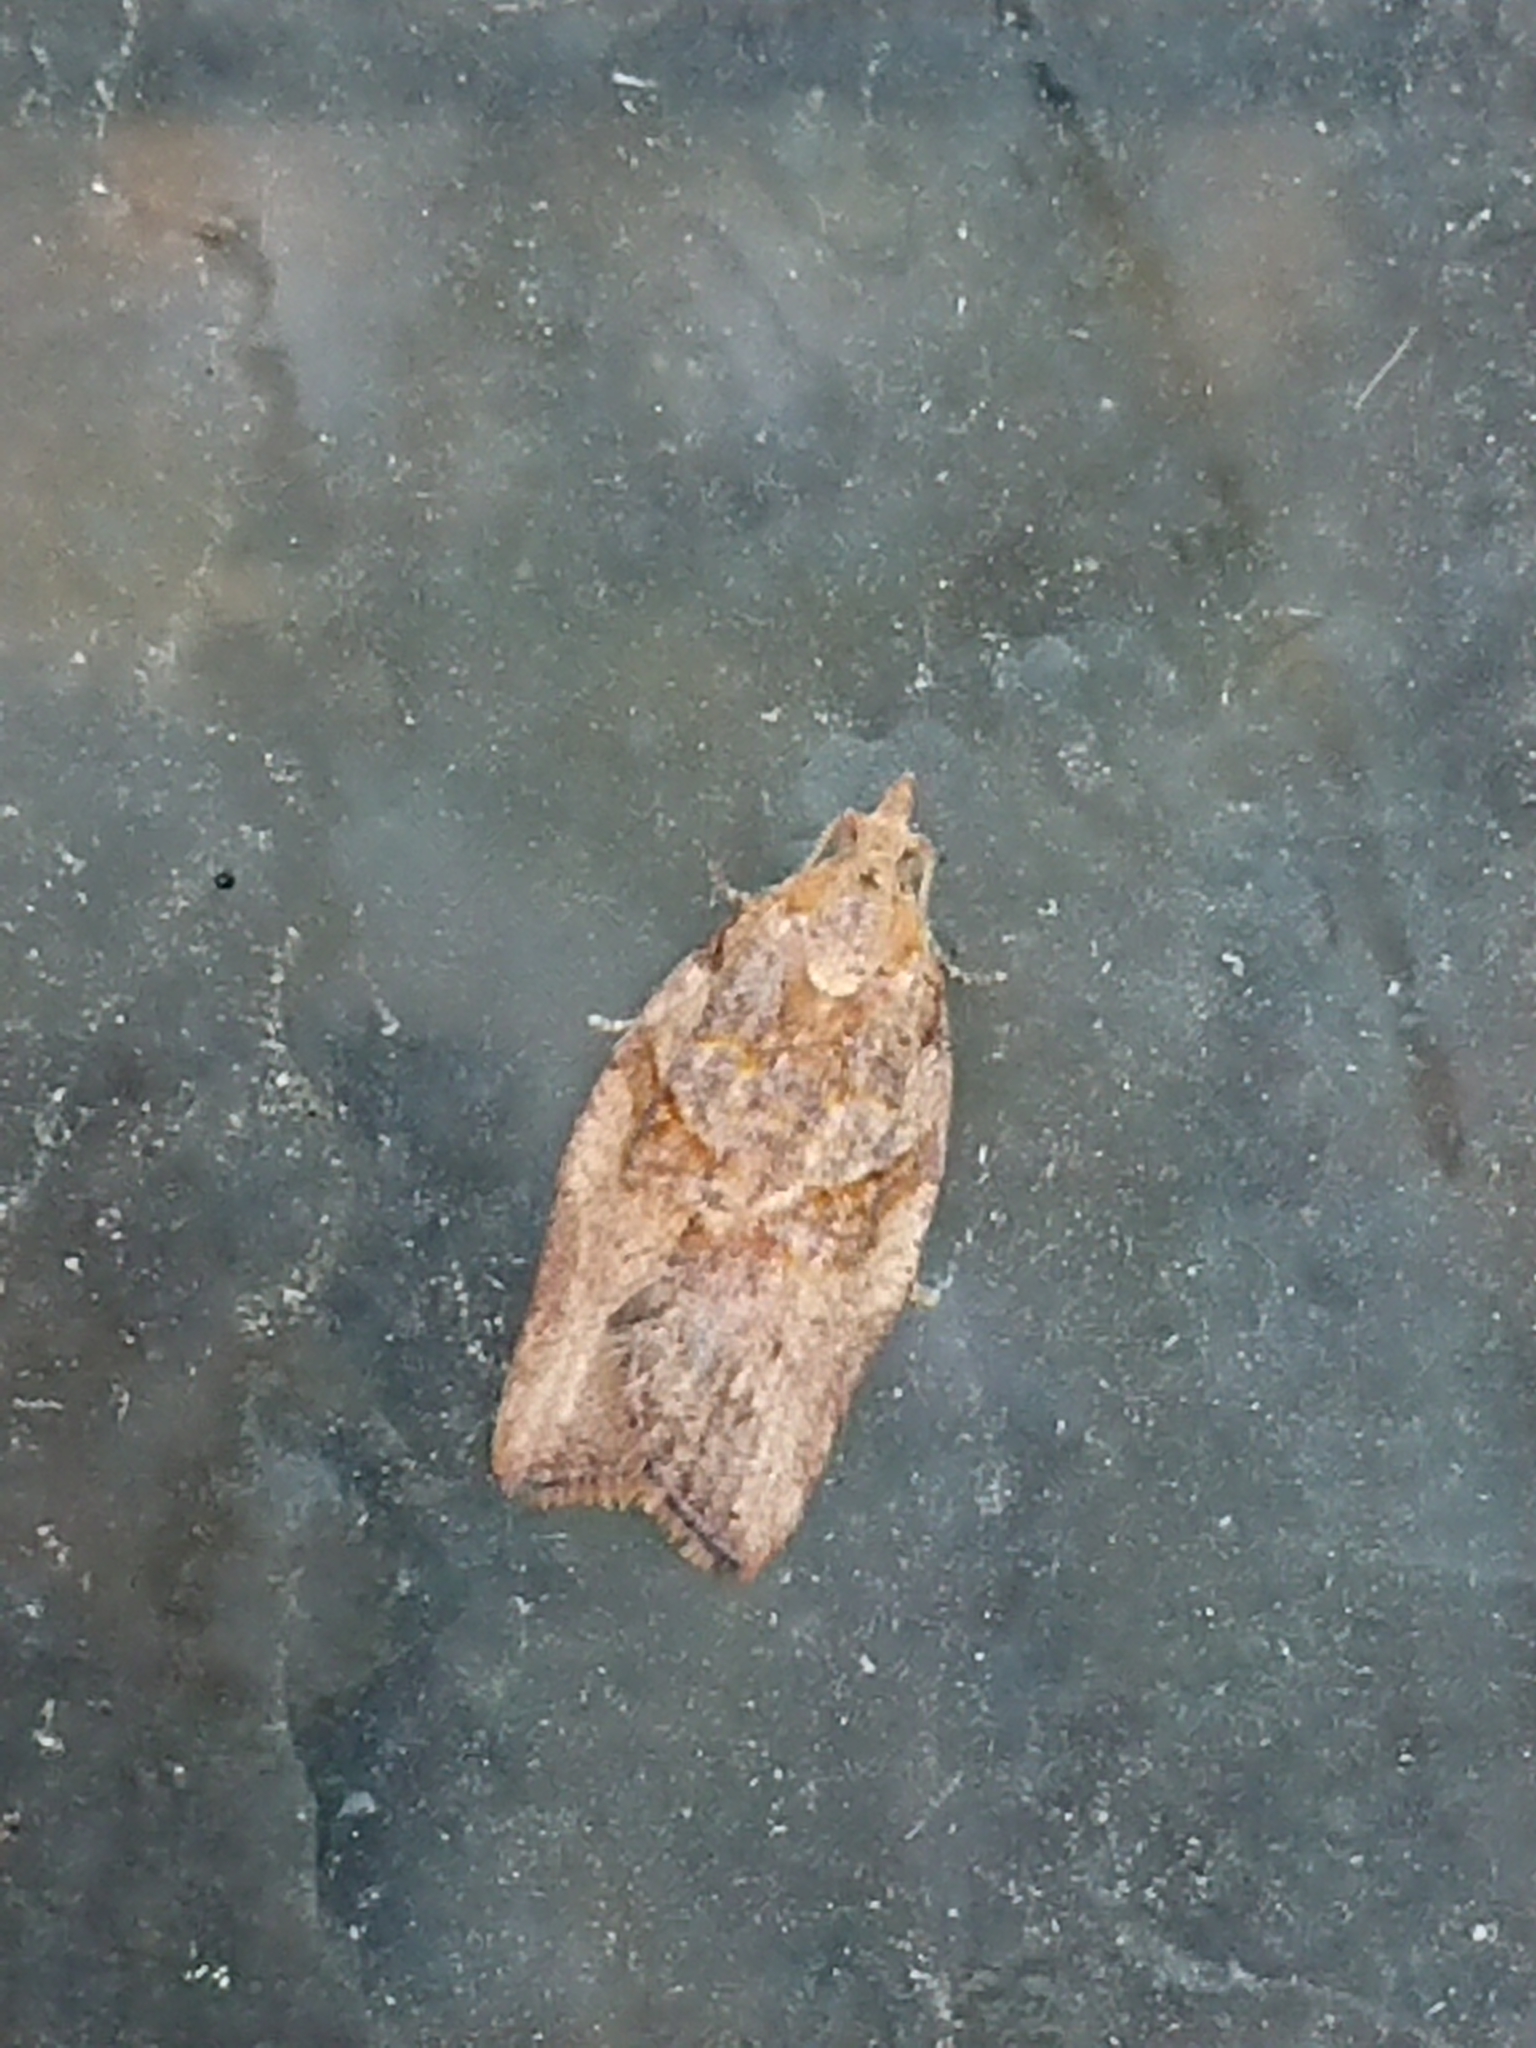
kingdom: Animalia
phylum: Arthropoda
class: Insecta
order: Lepidoptera
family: Tortricidae
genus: Epiphyas
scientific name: Epiphyas postvittana
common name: Light brown apple moth
